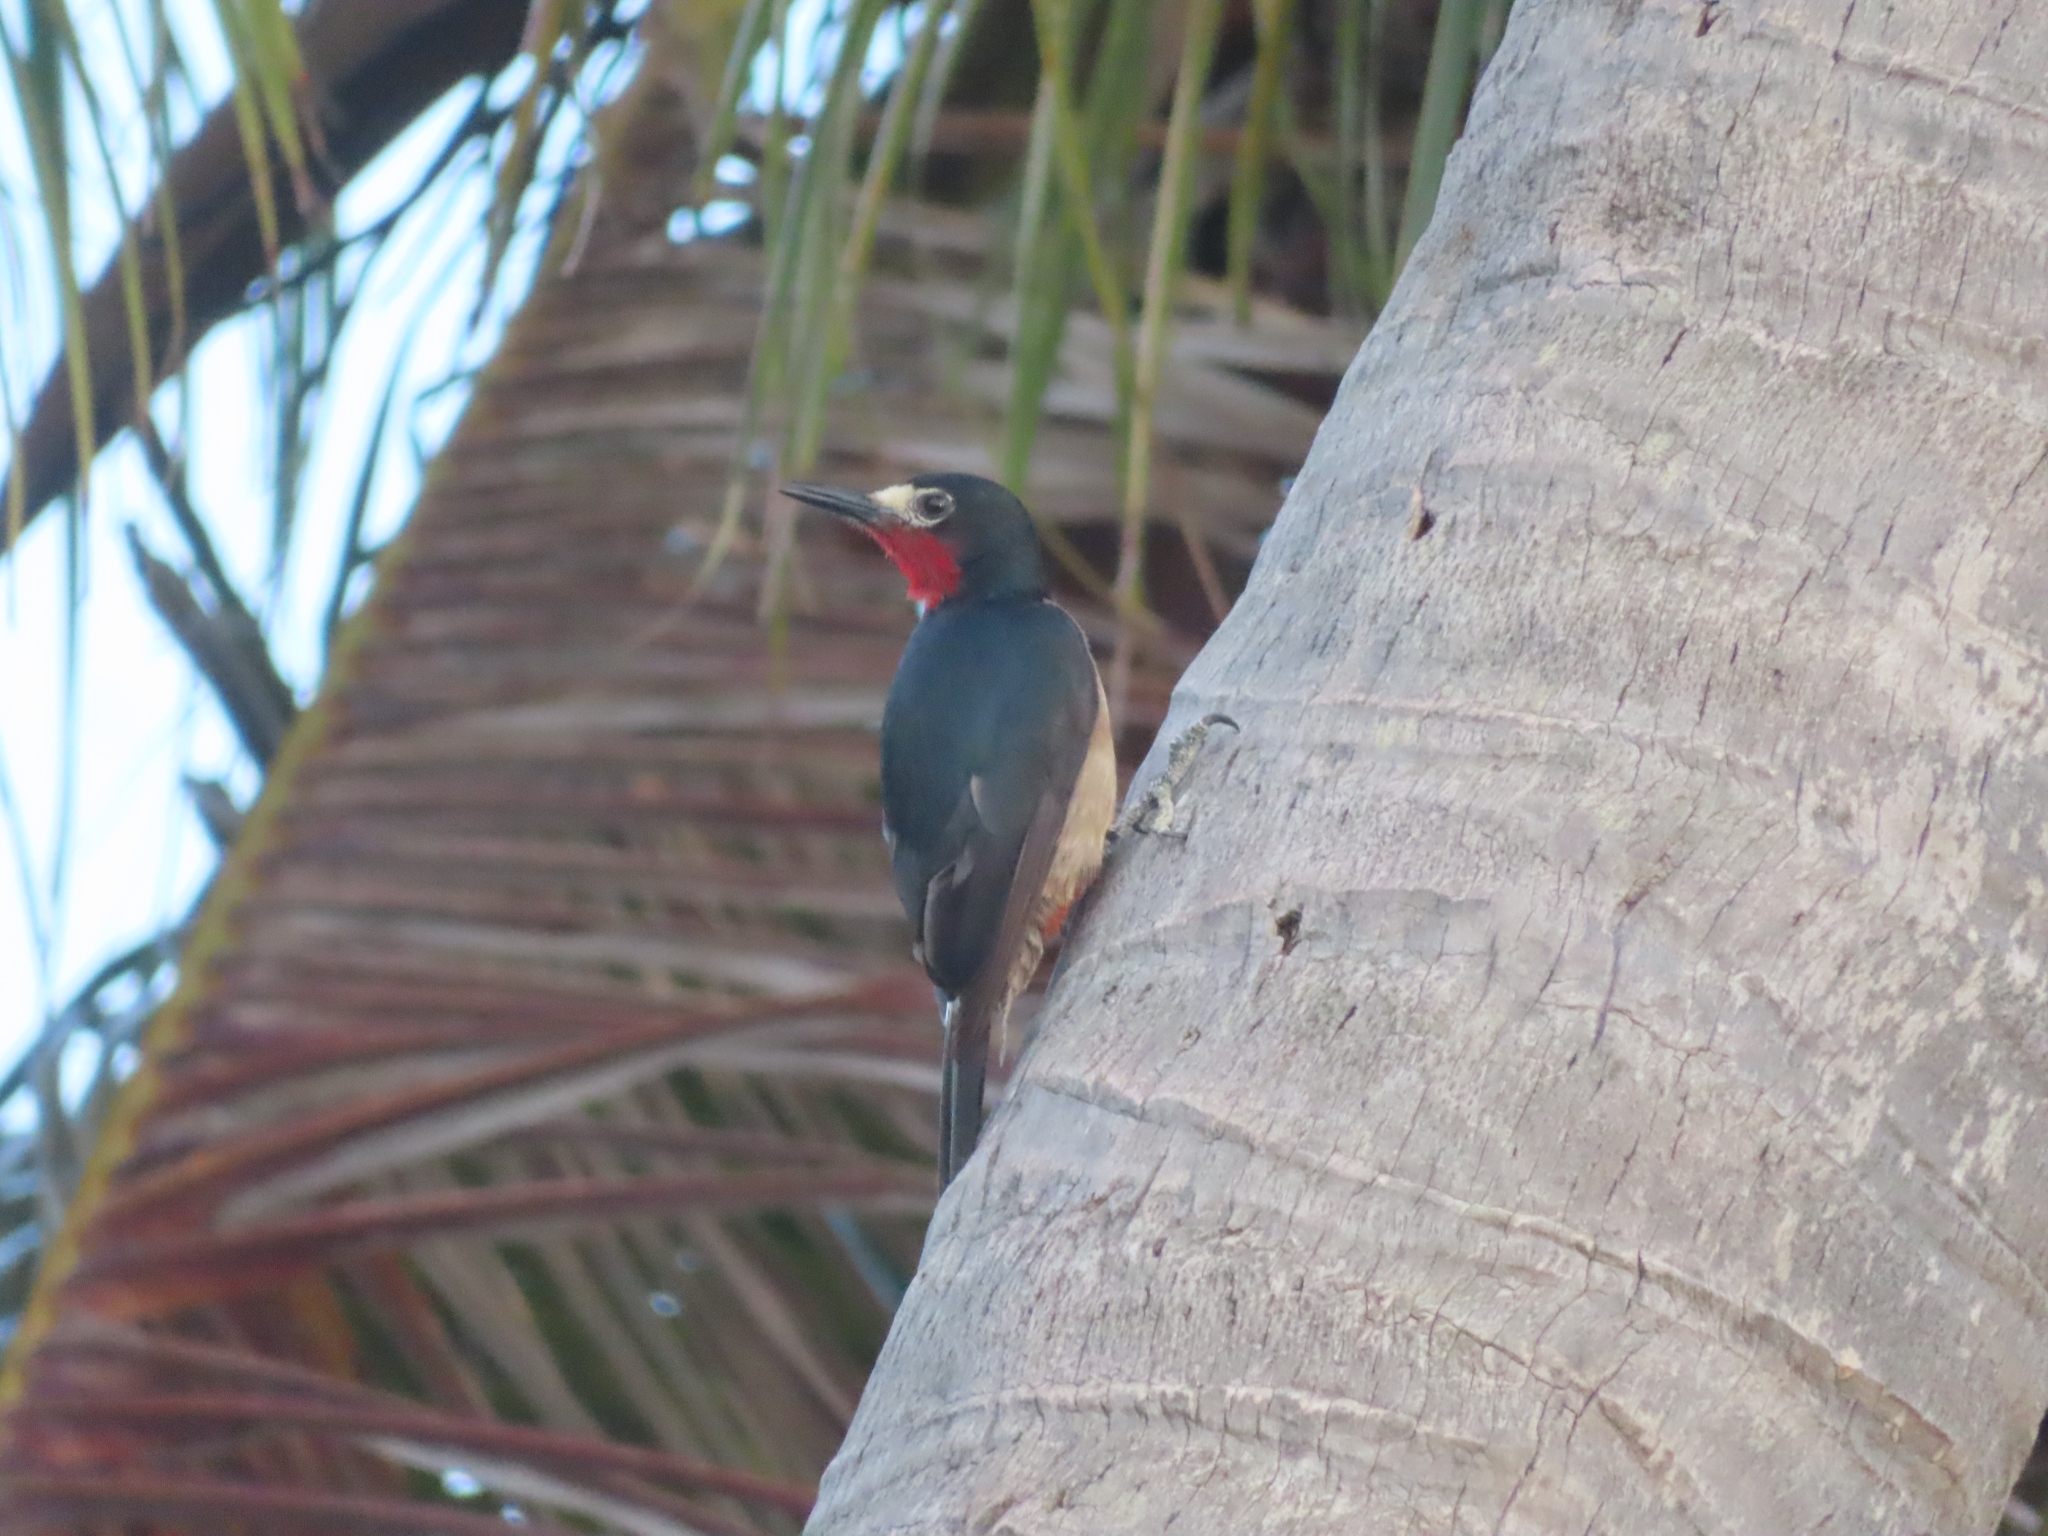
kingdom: Animalia
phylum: Chordata
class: Aves
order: Piciformes
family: Picidae
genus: Melanerpes
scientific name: Melanerpes portoricensis
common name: Puerto rican woodpecker
